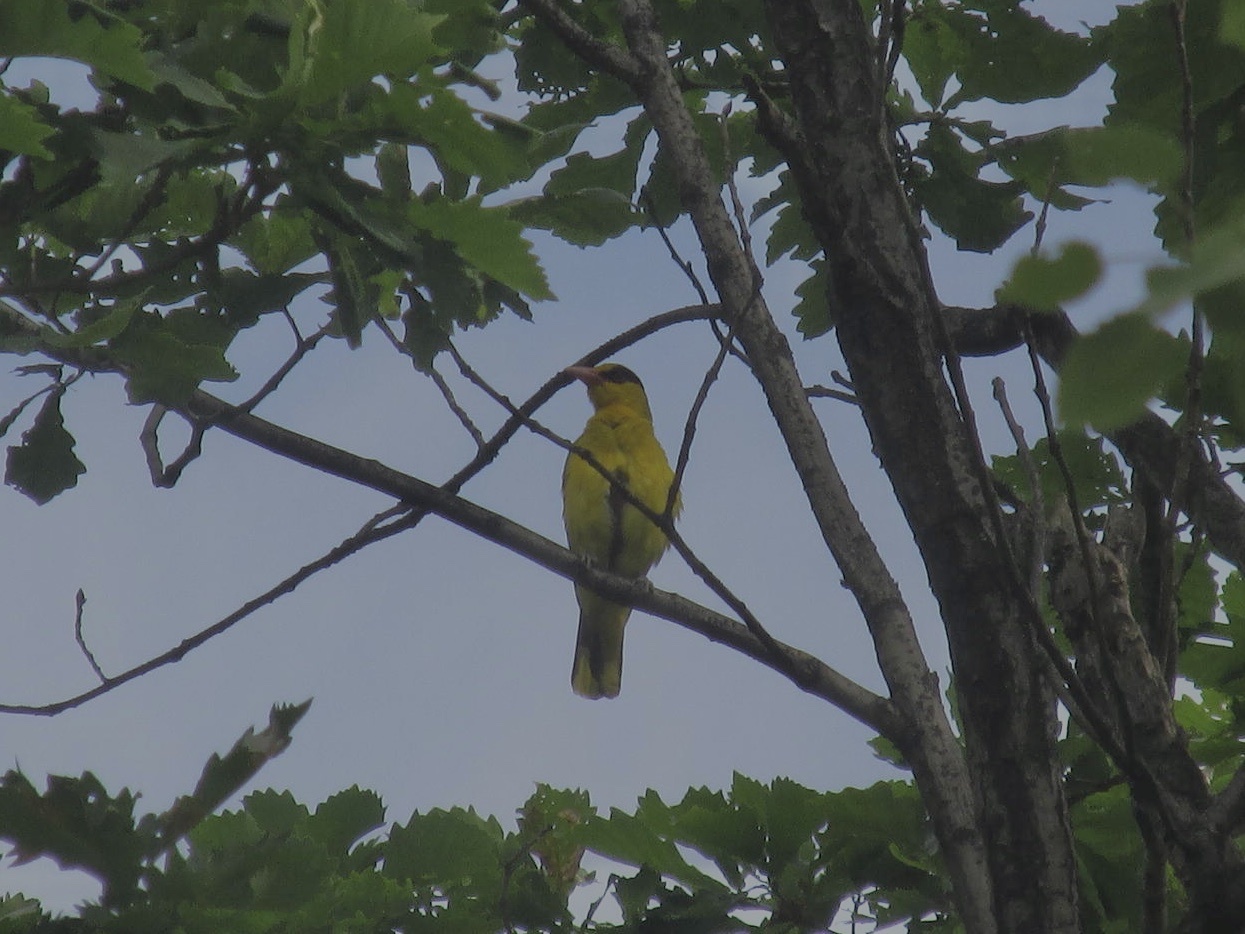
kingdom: Animalia
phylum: Chordata
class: Aves
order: Passeriformes
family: Oriolidae
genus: Oriolus
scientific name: Oriolus chinensis
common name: Black-naped oriole
